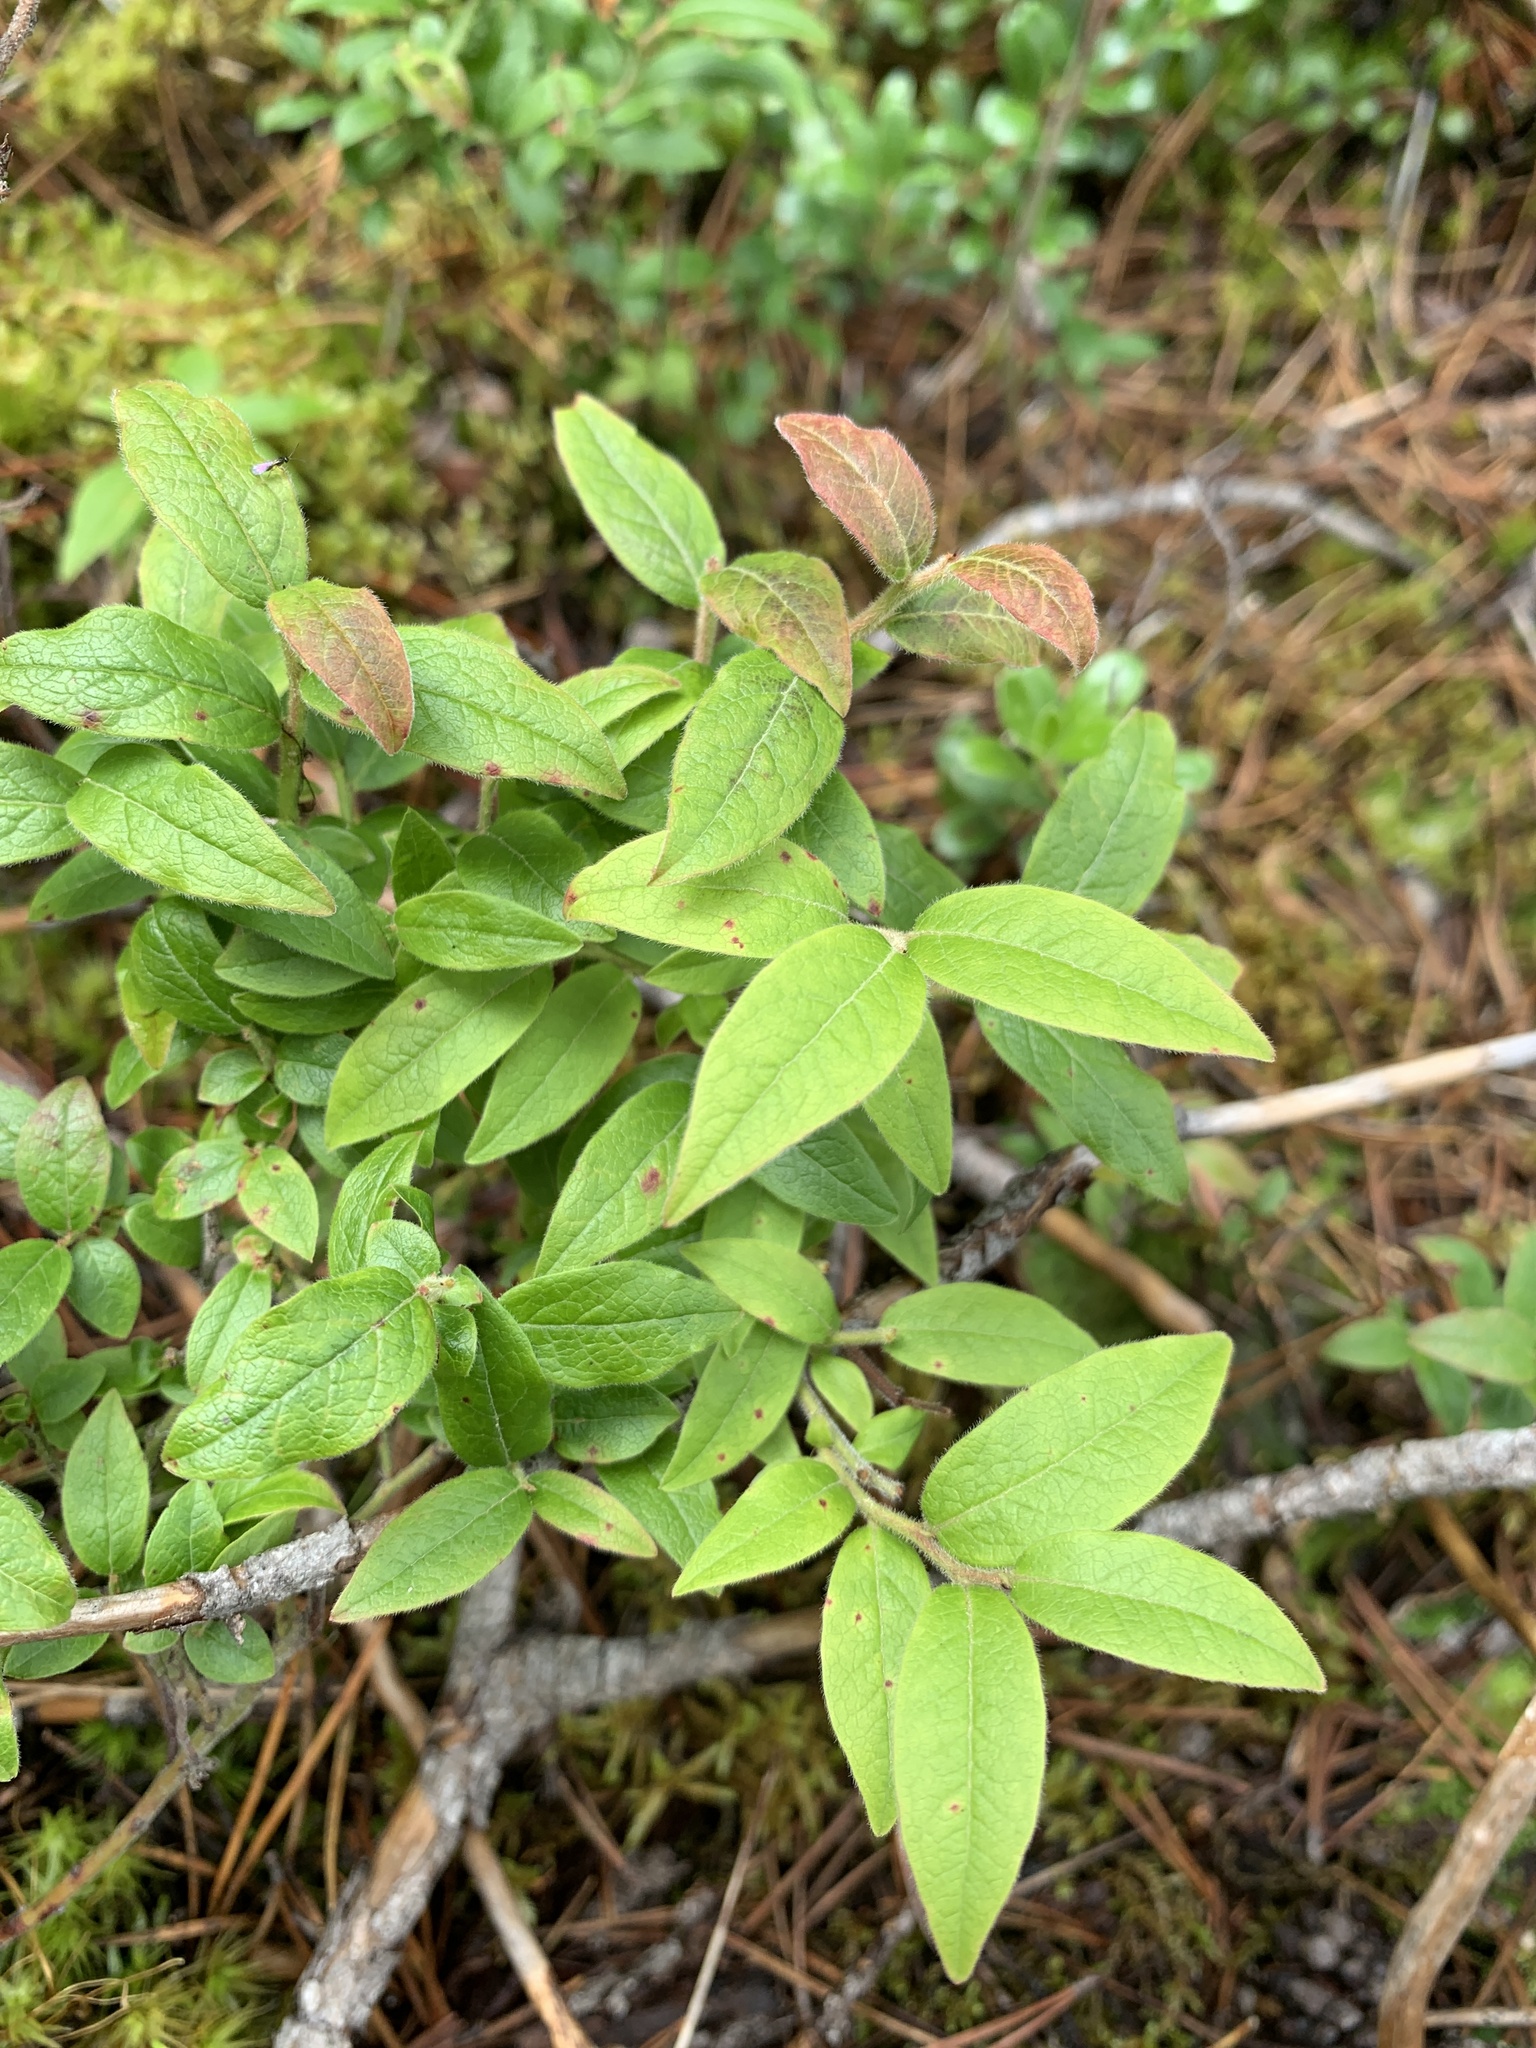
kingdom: Plantae
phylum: Tracheophyta
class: Magnoliopsida
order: Ericales
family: Ericaceae
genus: Vaccinium
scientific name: Vaccinium myrtilloides
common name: Canada blueberry
